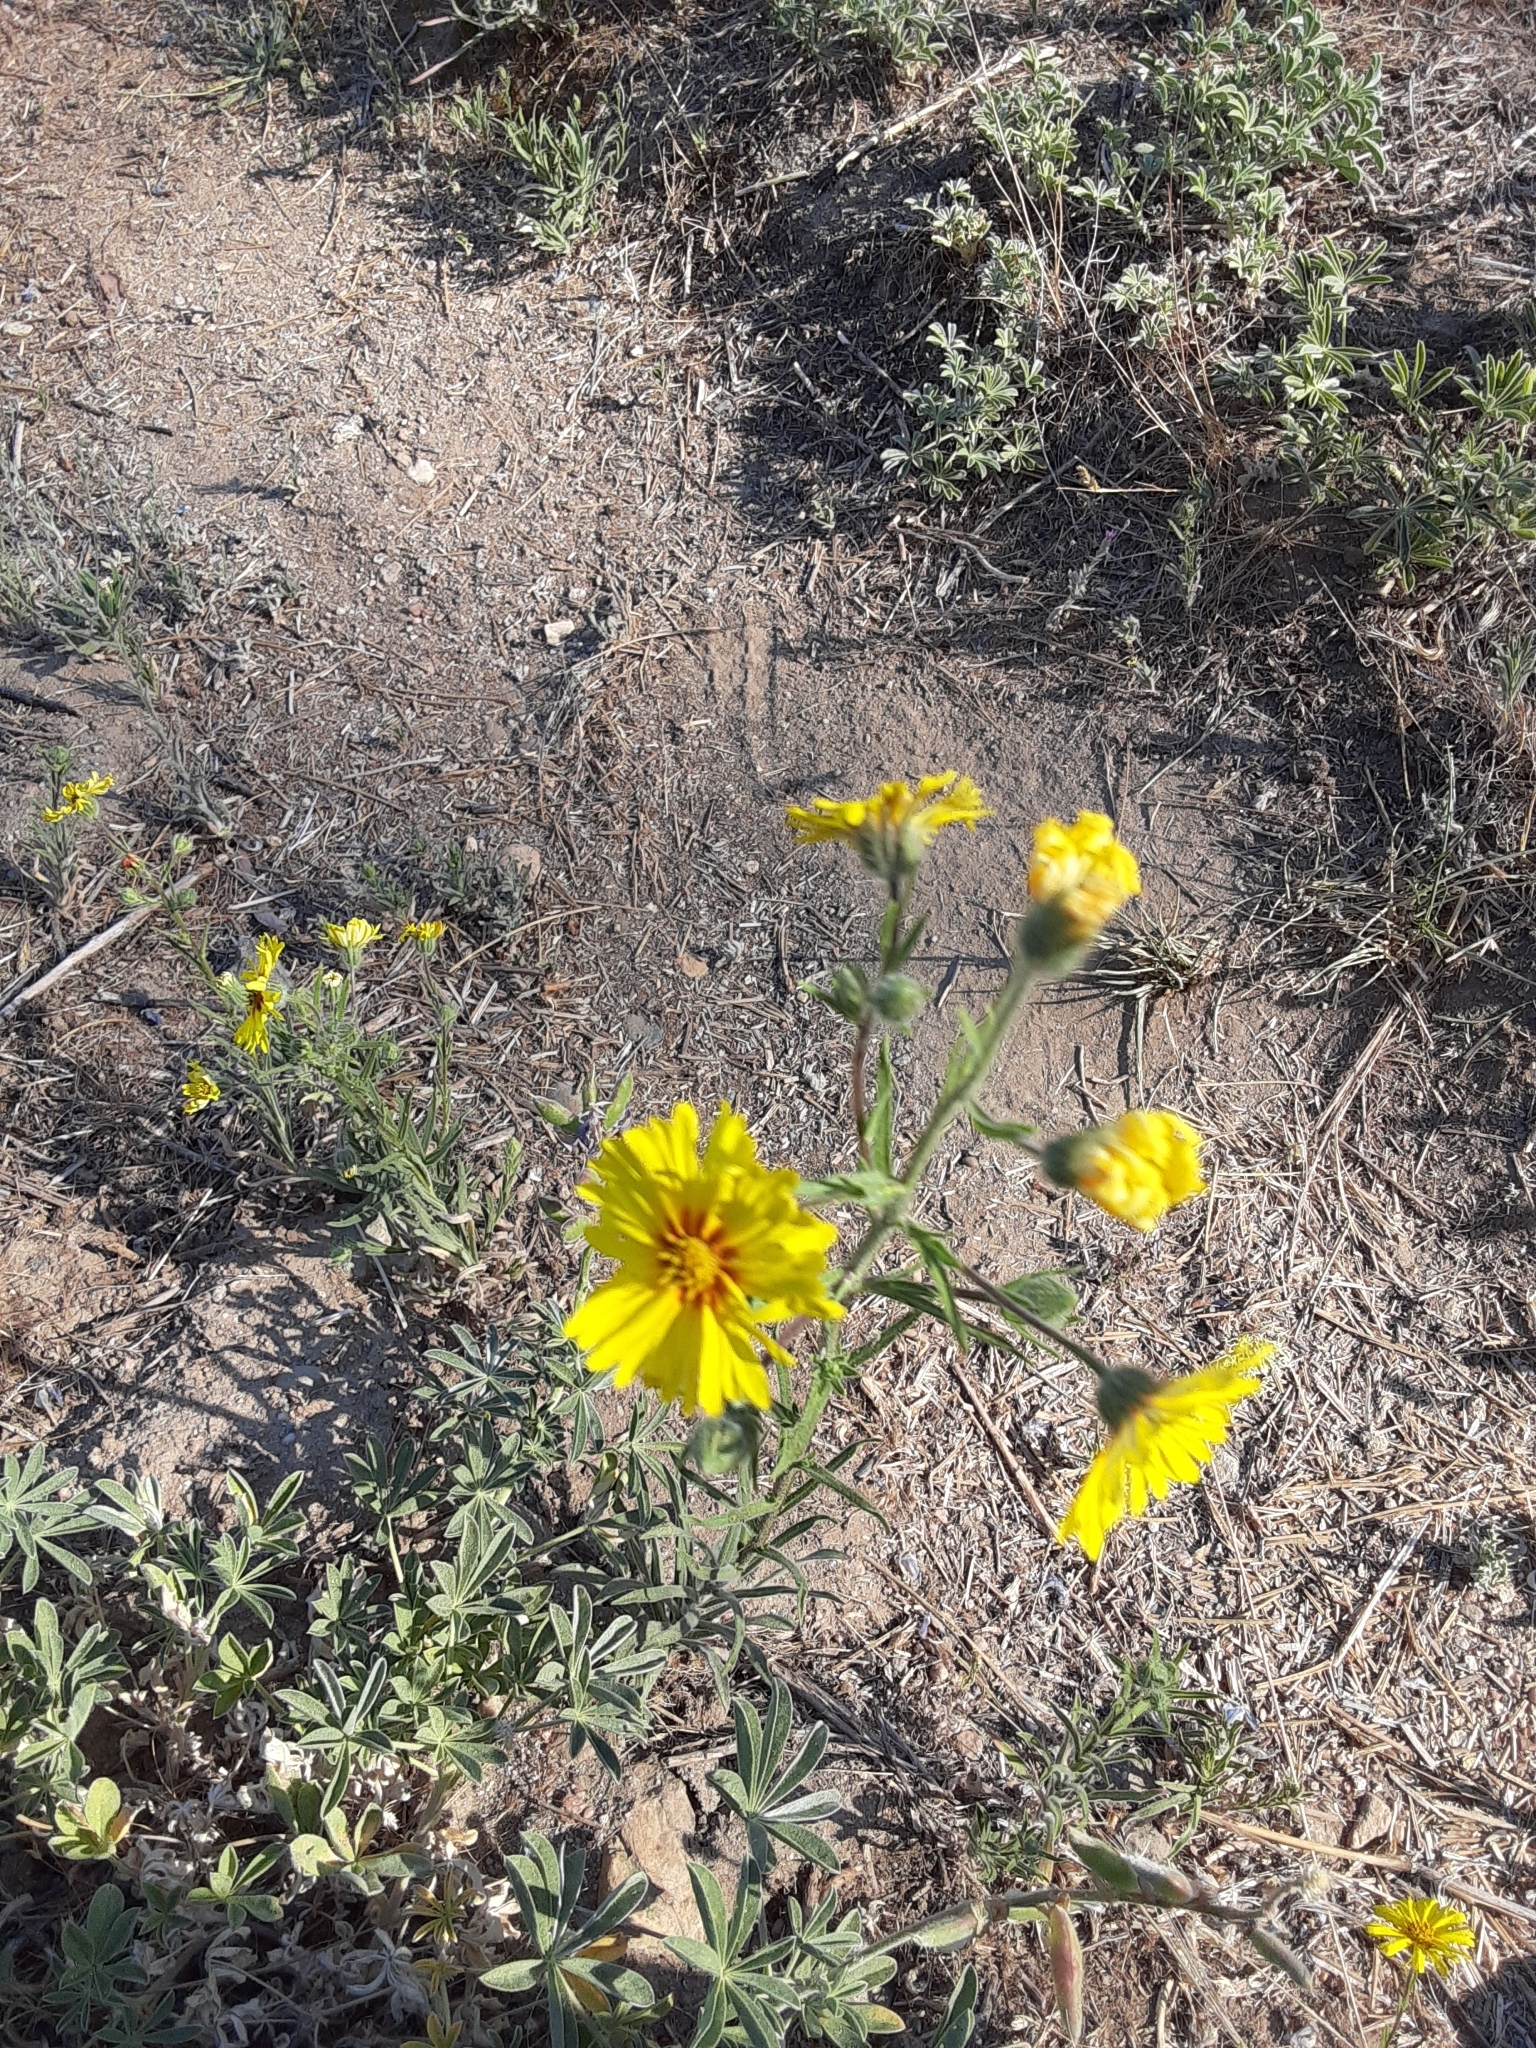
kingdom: Plantae
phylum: Tracheophyta
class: Magnoliopsida
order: Asterales
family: Asteraceae
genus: Madia
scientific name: Madia elegans
